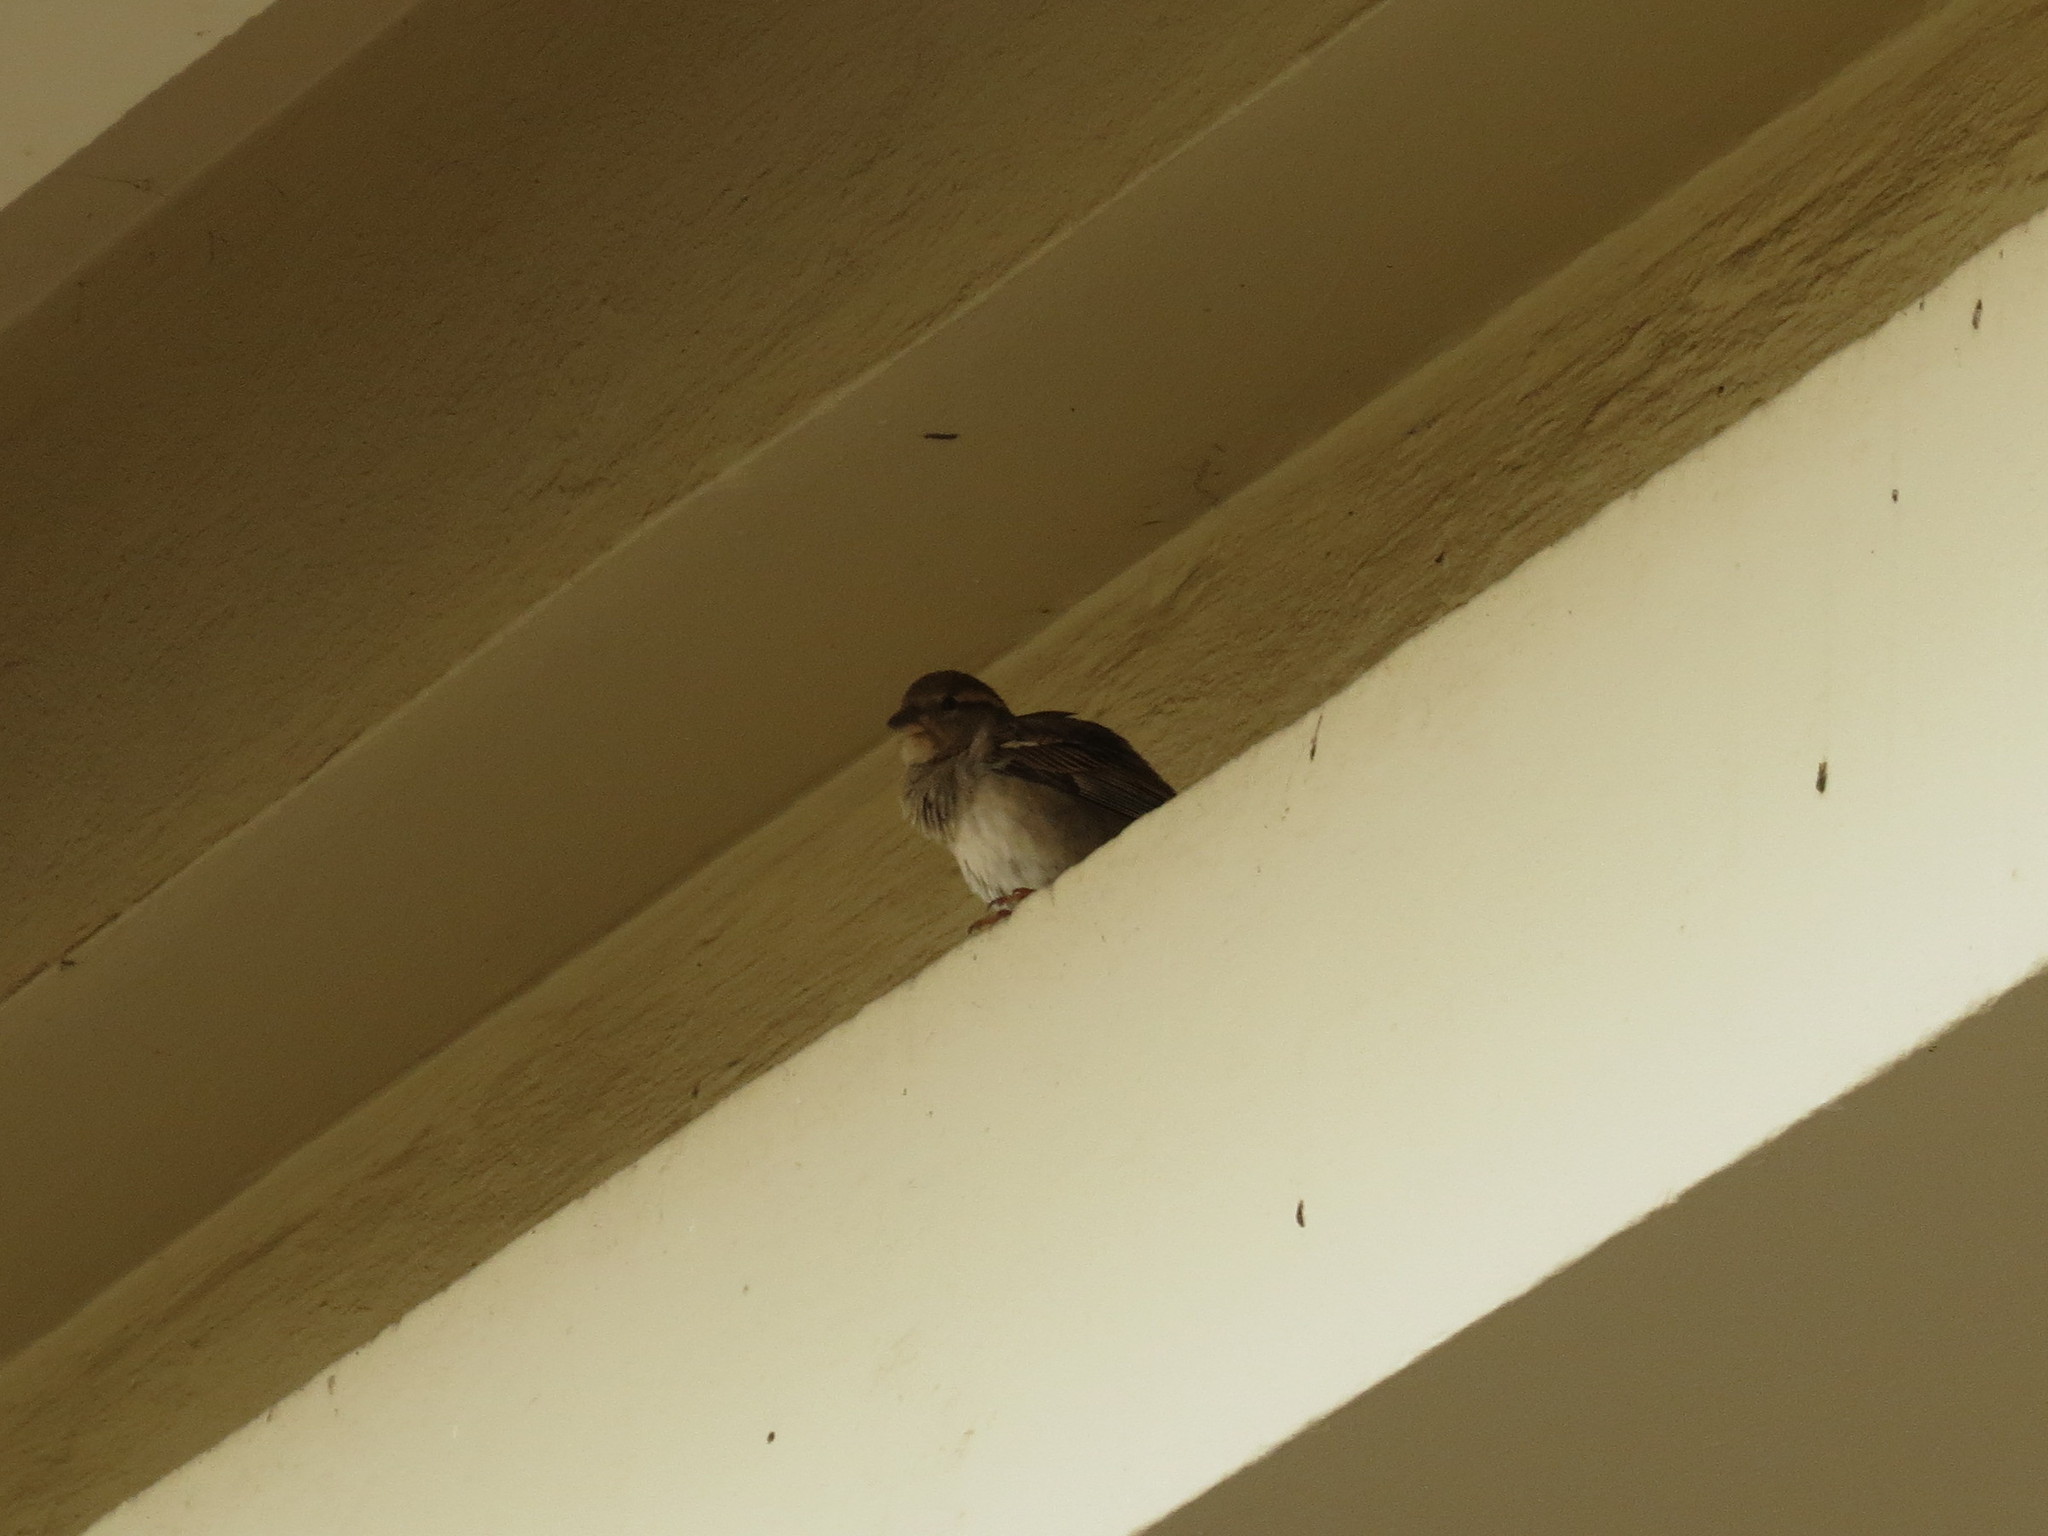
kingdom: Animalia
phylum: Chordata
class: Aves
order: Passeriformes
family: Passeridae
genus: Passer
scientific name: Passer domesticus
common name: House sparrow
